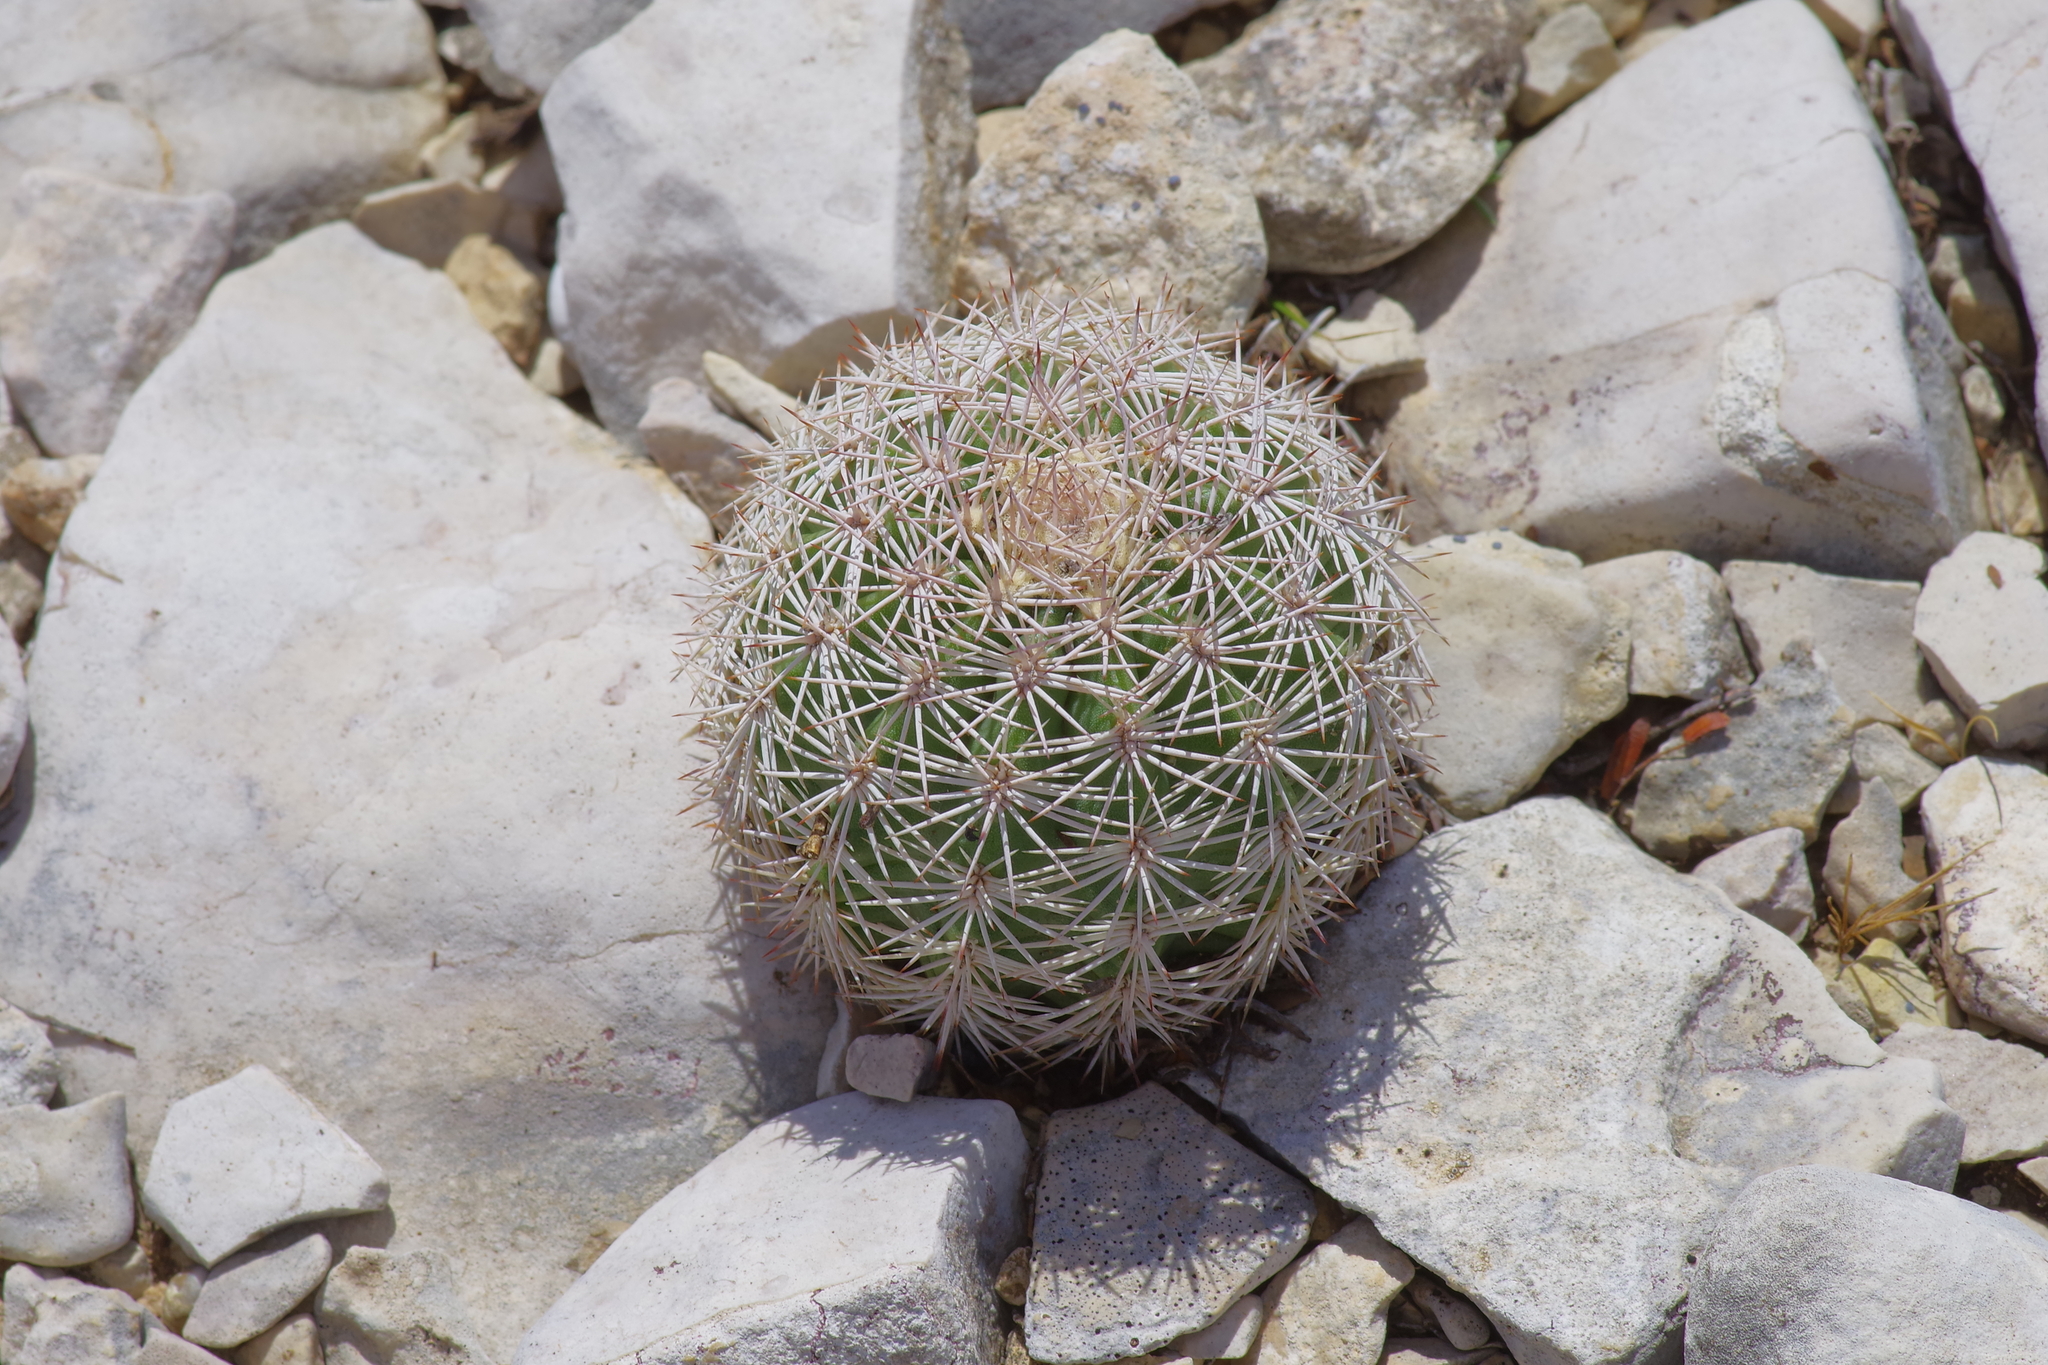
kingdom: Plantae
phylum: Tracheophyta
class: Magnoliopsida
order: Caryophyllales
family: Cactaceae
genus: Echinocereus
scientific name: Echinocereus pectinatus
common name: Rainbow cactus
